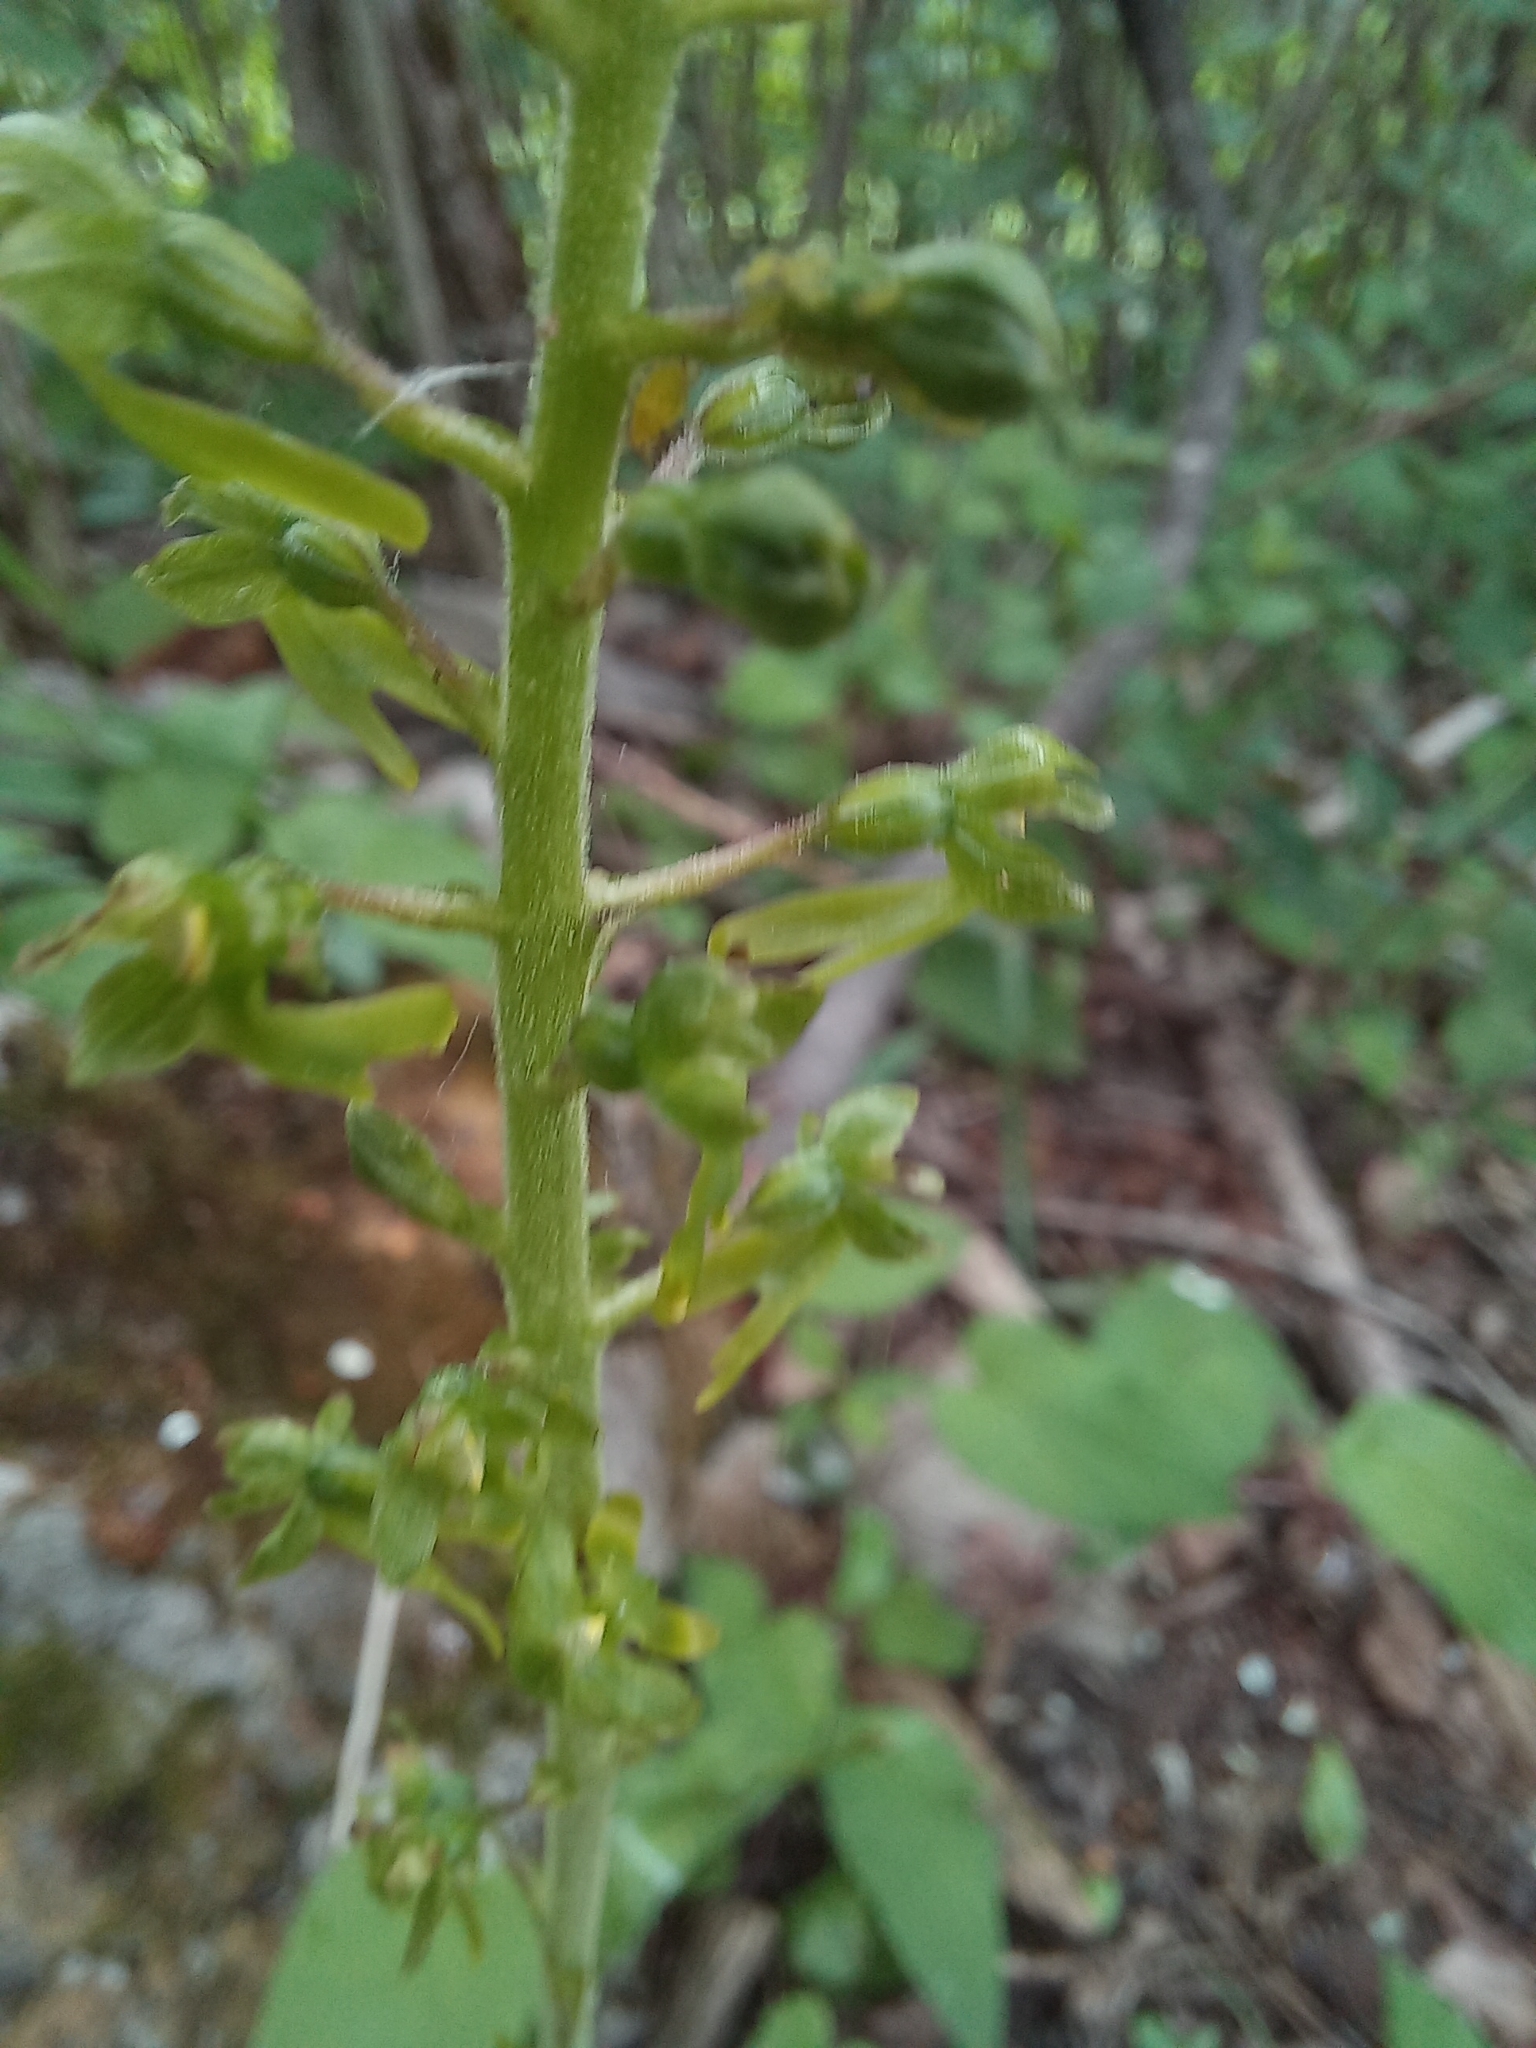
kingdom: Plantae
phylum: Tracheophyta
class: Liliopsida
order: Asparagales
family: Orchidaceae
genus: Neottia
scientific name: Neottia ovata
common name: Common twayblade
